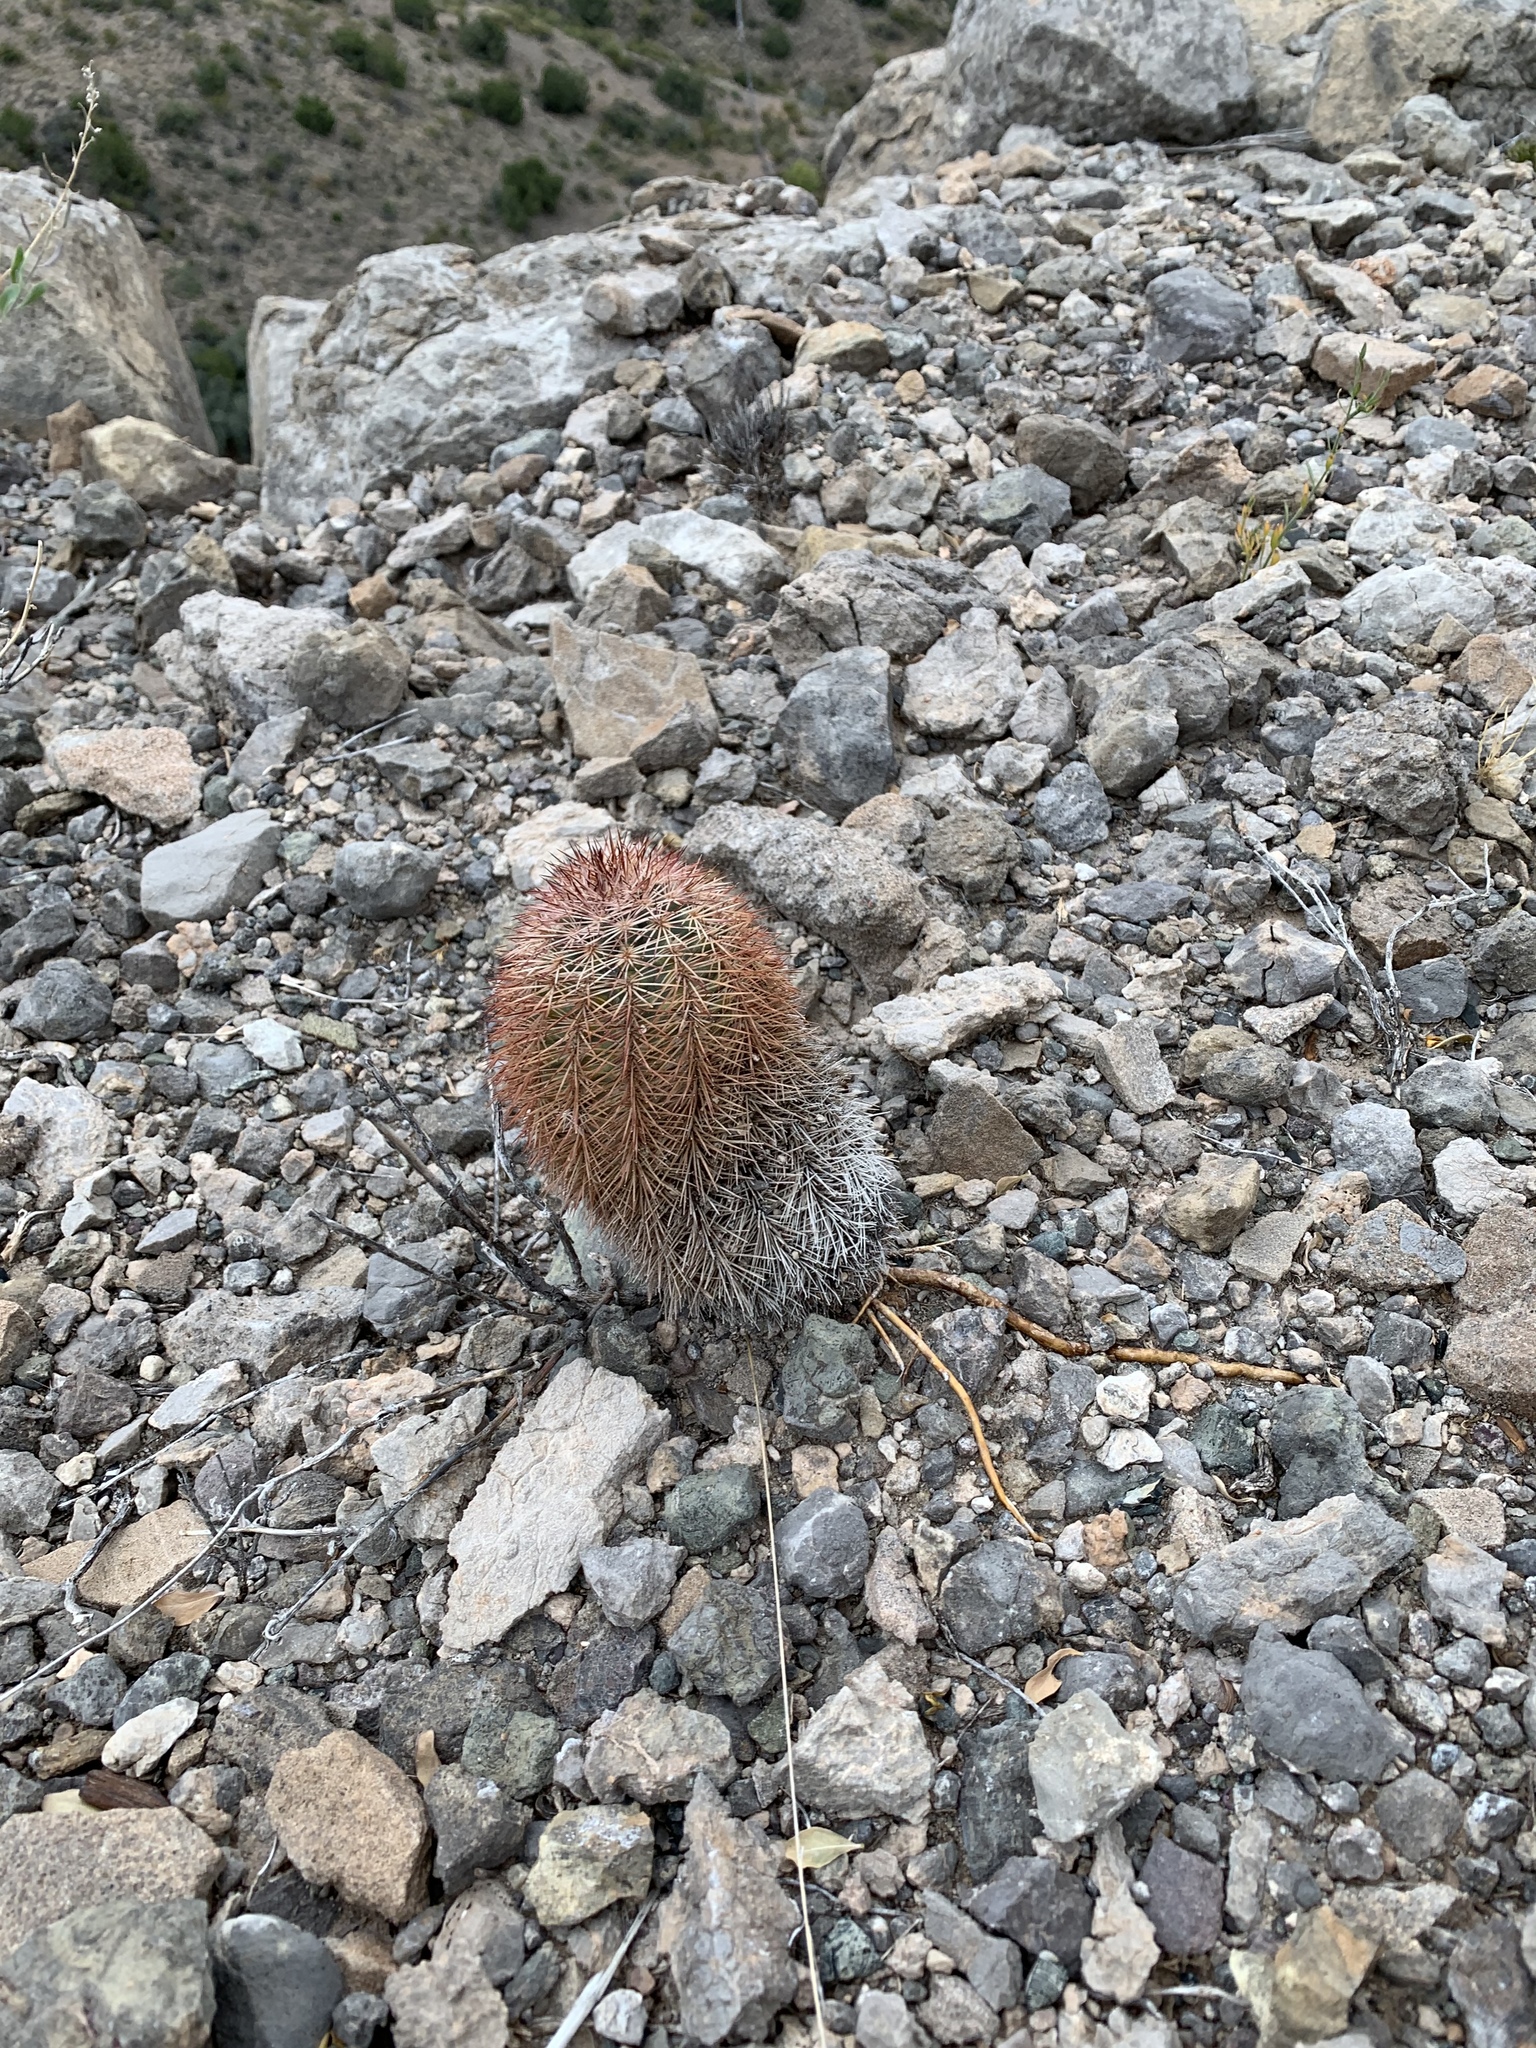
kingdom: Plantae
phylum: Tracheophyta
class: Magnoliopsida
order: Caryophyllales
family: Cactaceae
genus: Echinocereus
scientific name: Echinocereus dasyacanthus
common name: Spiny hedgehog cactus
